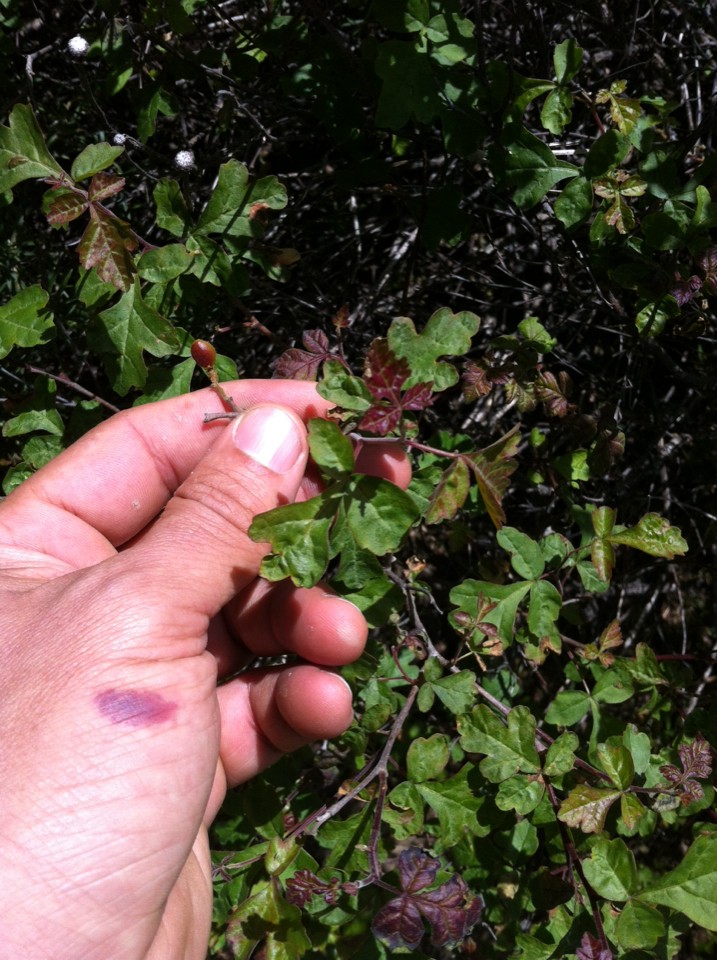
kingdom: Plantae
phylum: Tracheophyta
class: Magnoliopsida
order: Sapindales
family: Anacardiaceae
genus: Rhus
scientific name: Rhus aromatica
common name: Aromatic sumac
